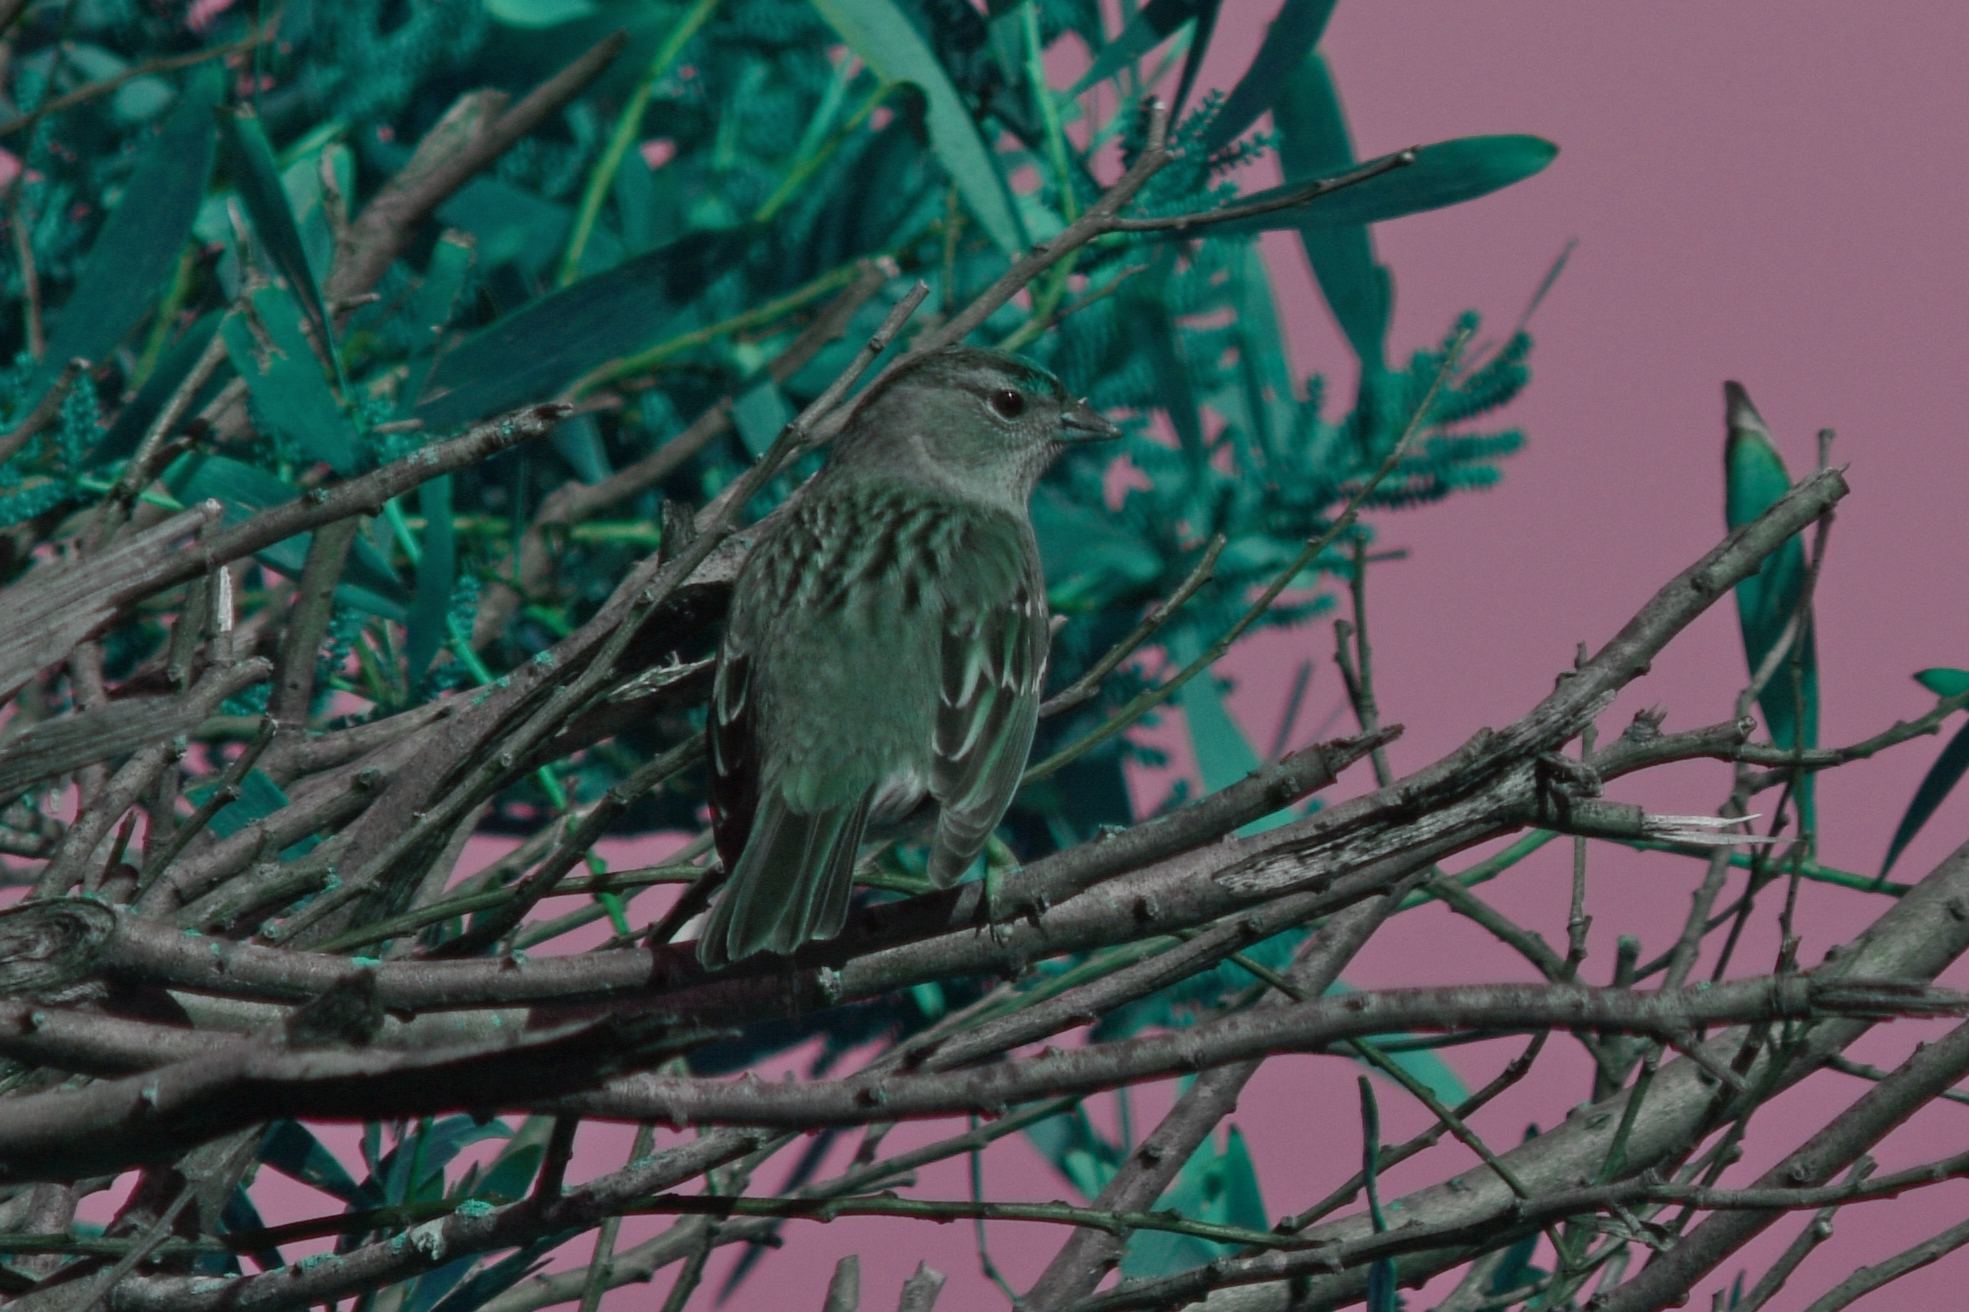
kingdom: Animalia
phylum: Chordata
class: Aves
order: Passeriformes
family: Passerellidae
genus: Zonotrichia
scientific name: Zonotrichia atricapilla
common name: Golden-crowned sparrow
